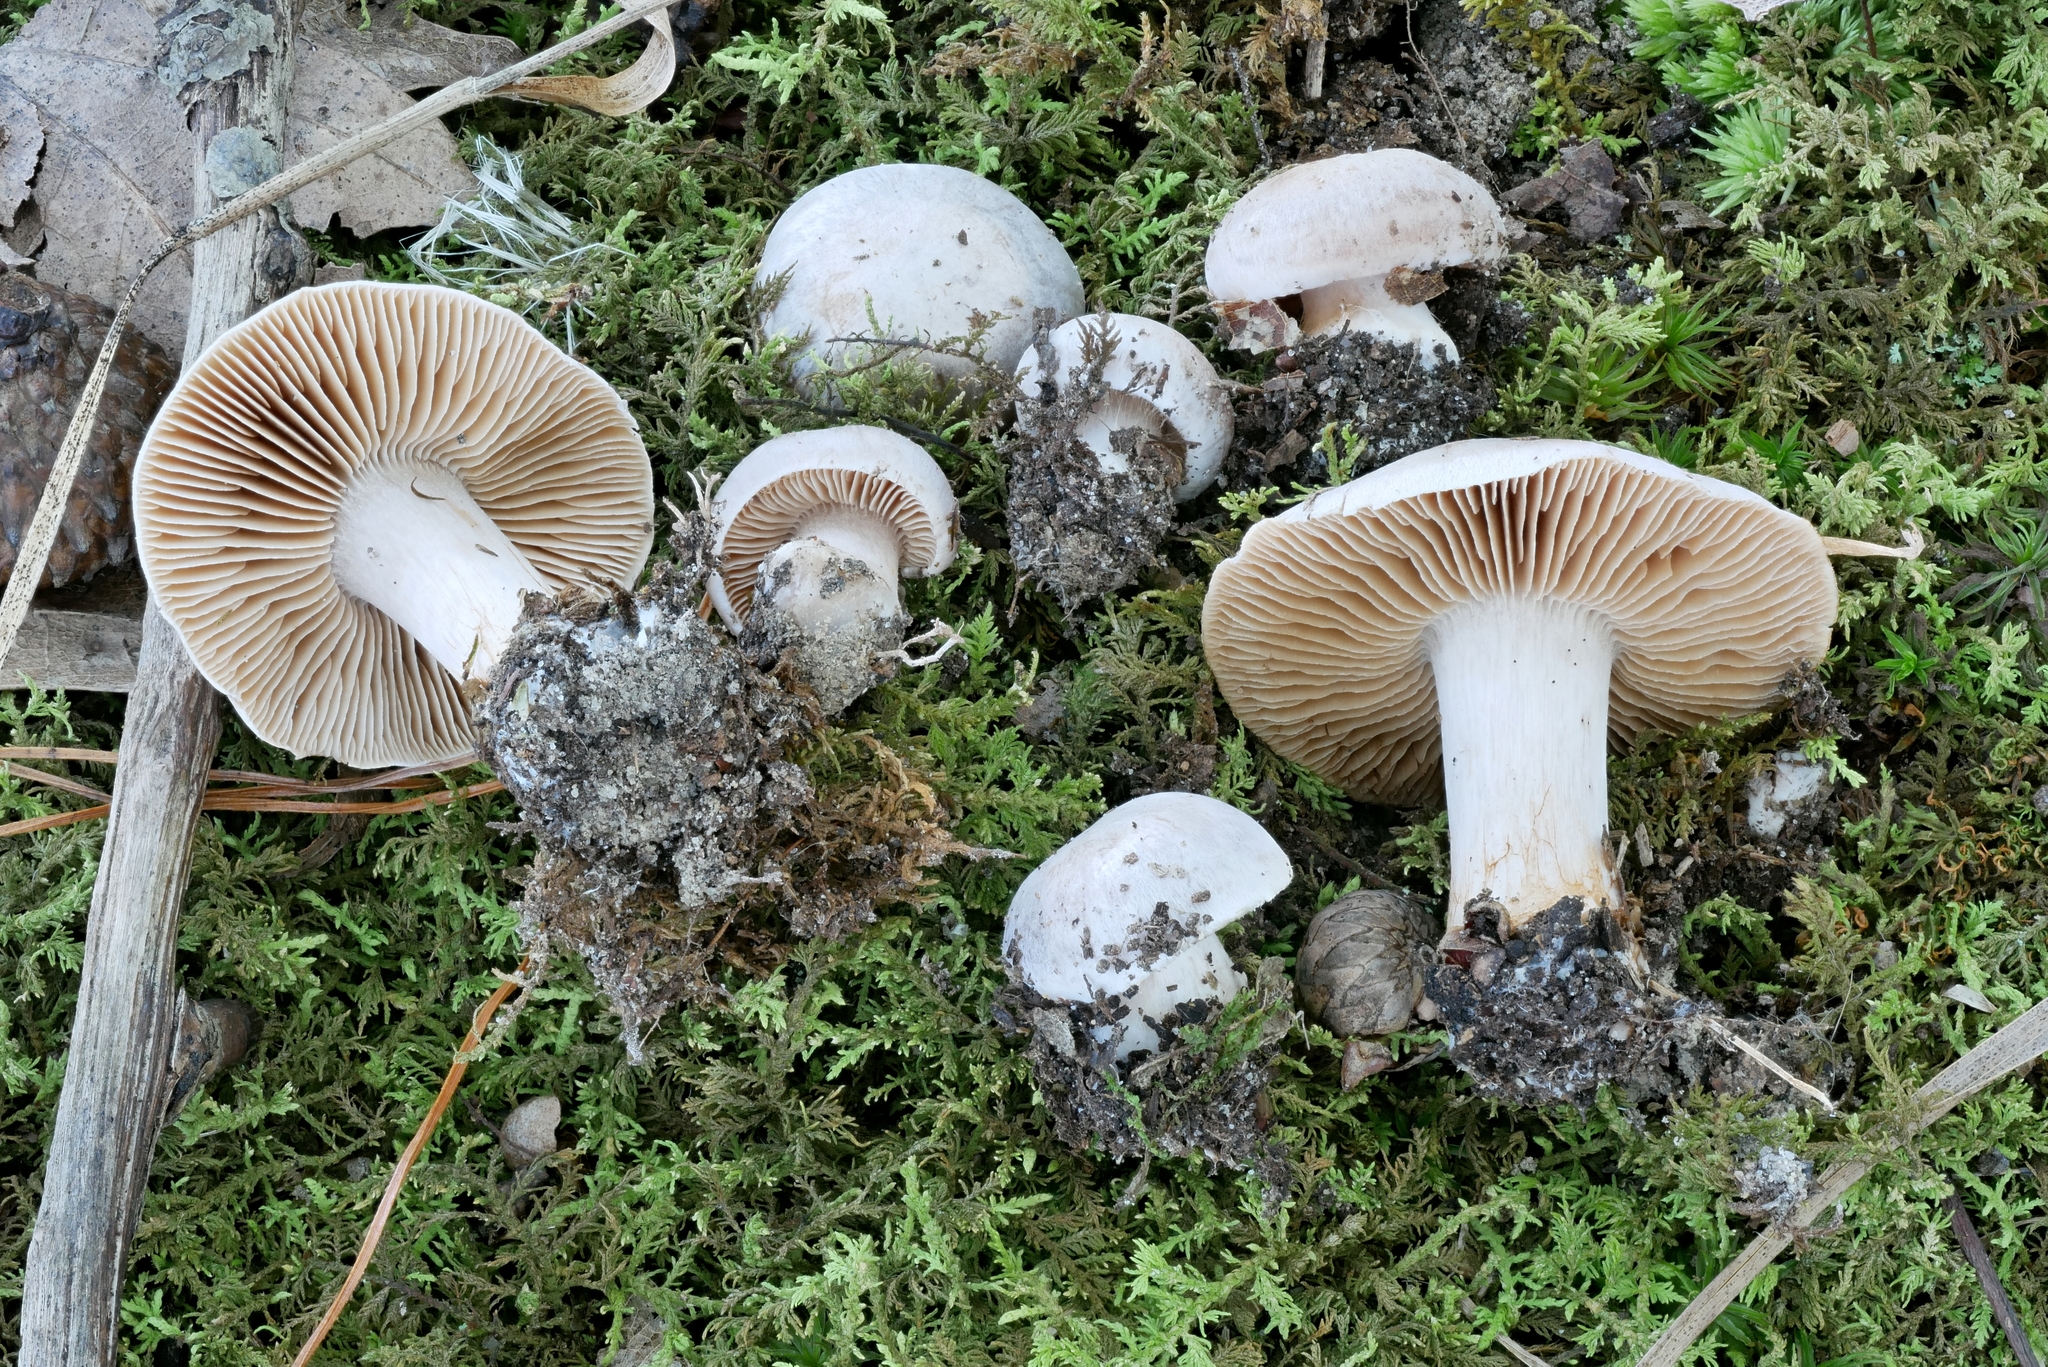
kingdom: Fungi
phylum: Basidiomycota
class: Agaricomycetes
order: Agaricales
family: Cortinariaceae
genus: Cortinarius
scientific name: Cortinarius leiocastaneus
